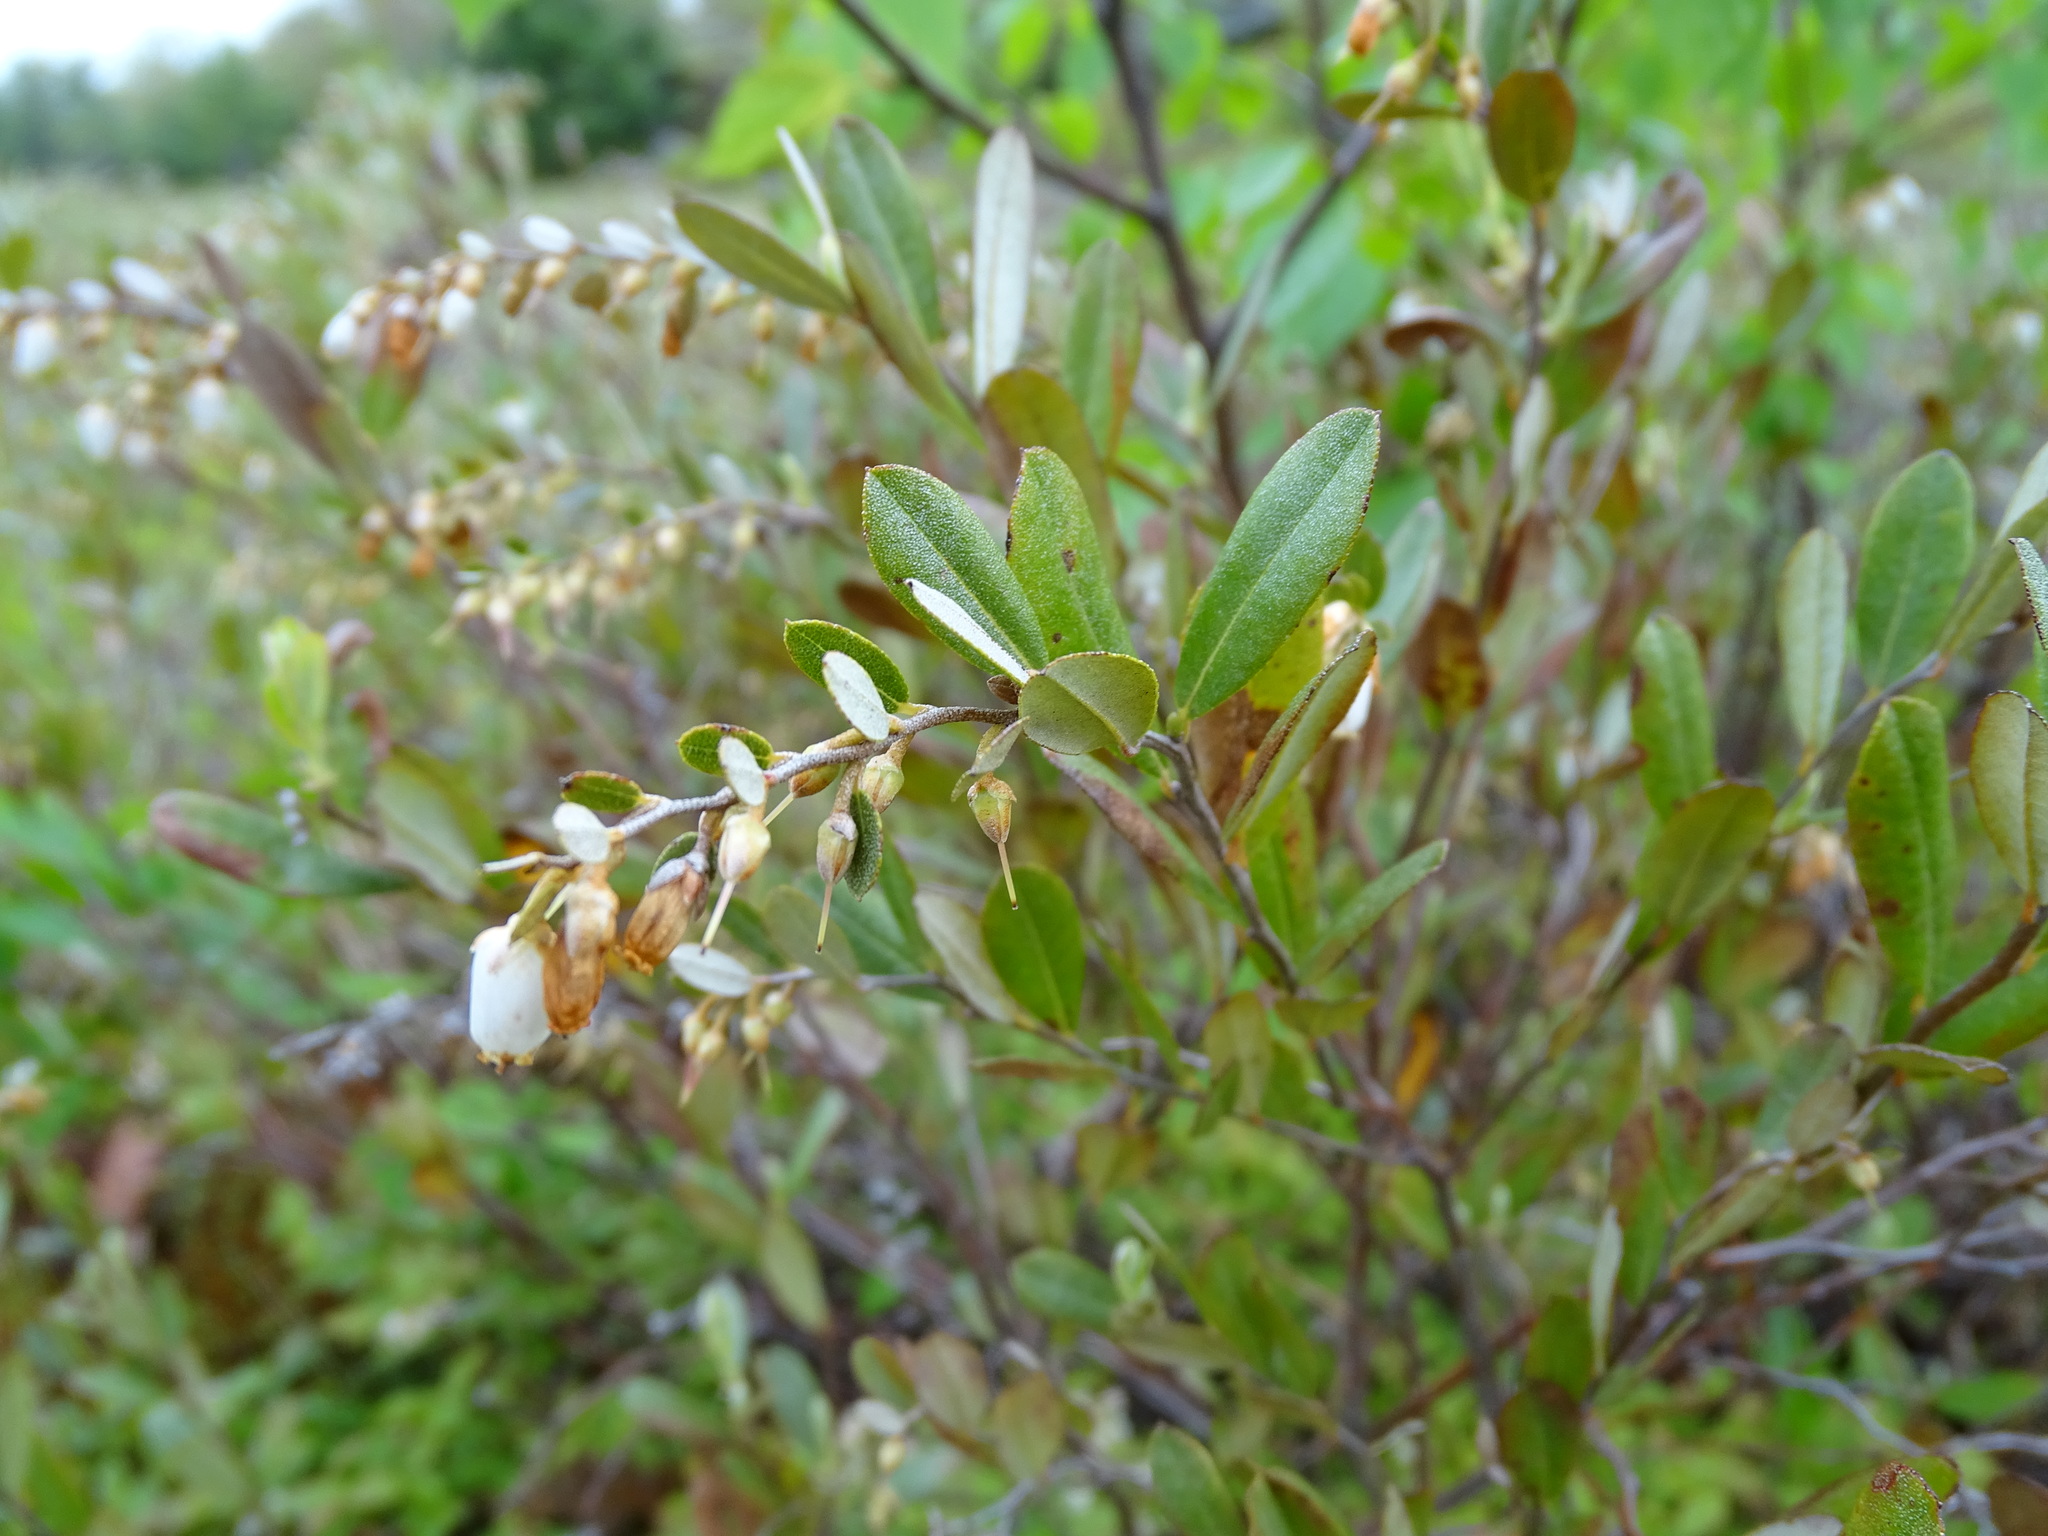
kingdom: Plantae
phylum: Tracheophyta
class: Magnoliopsida
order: Ericales
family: Ericaceae
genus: Chamaedaphne
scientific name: Chamaedaphne calyculata
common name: Leatherleaf
